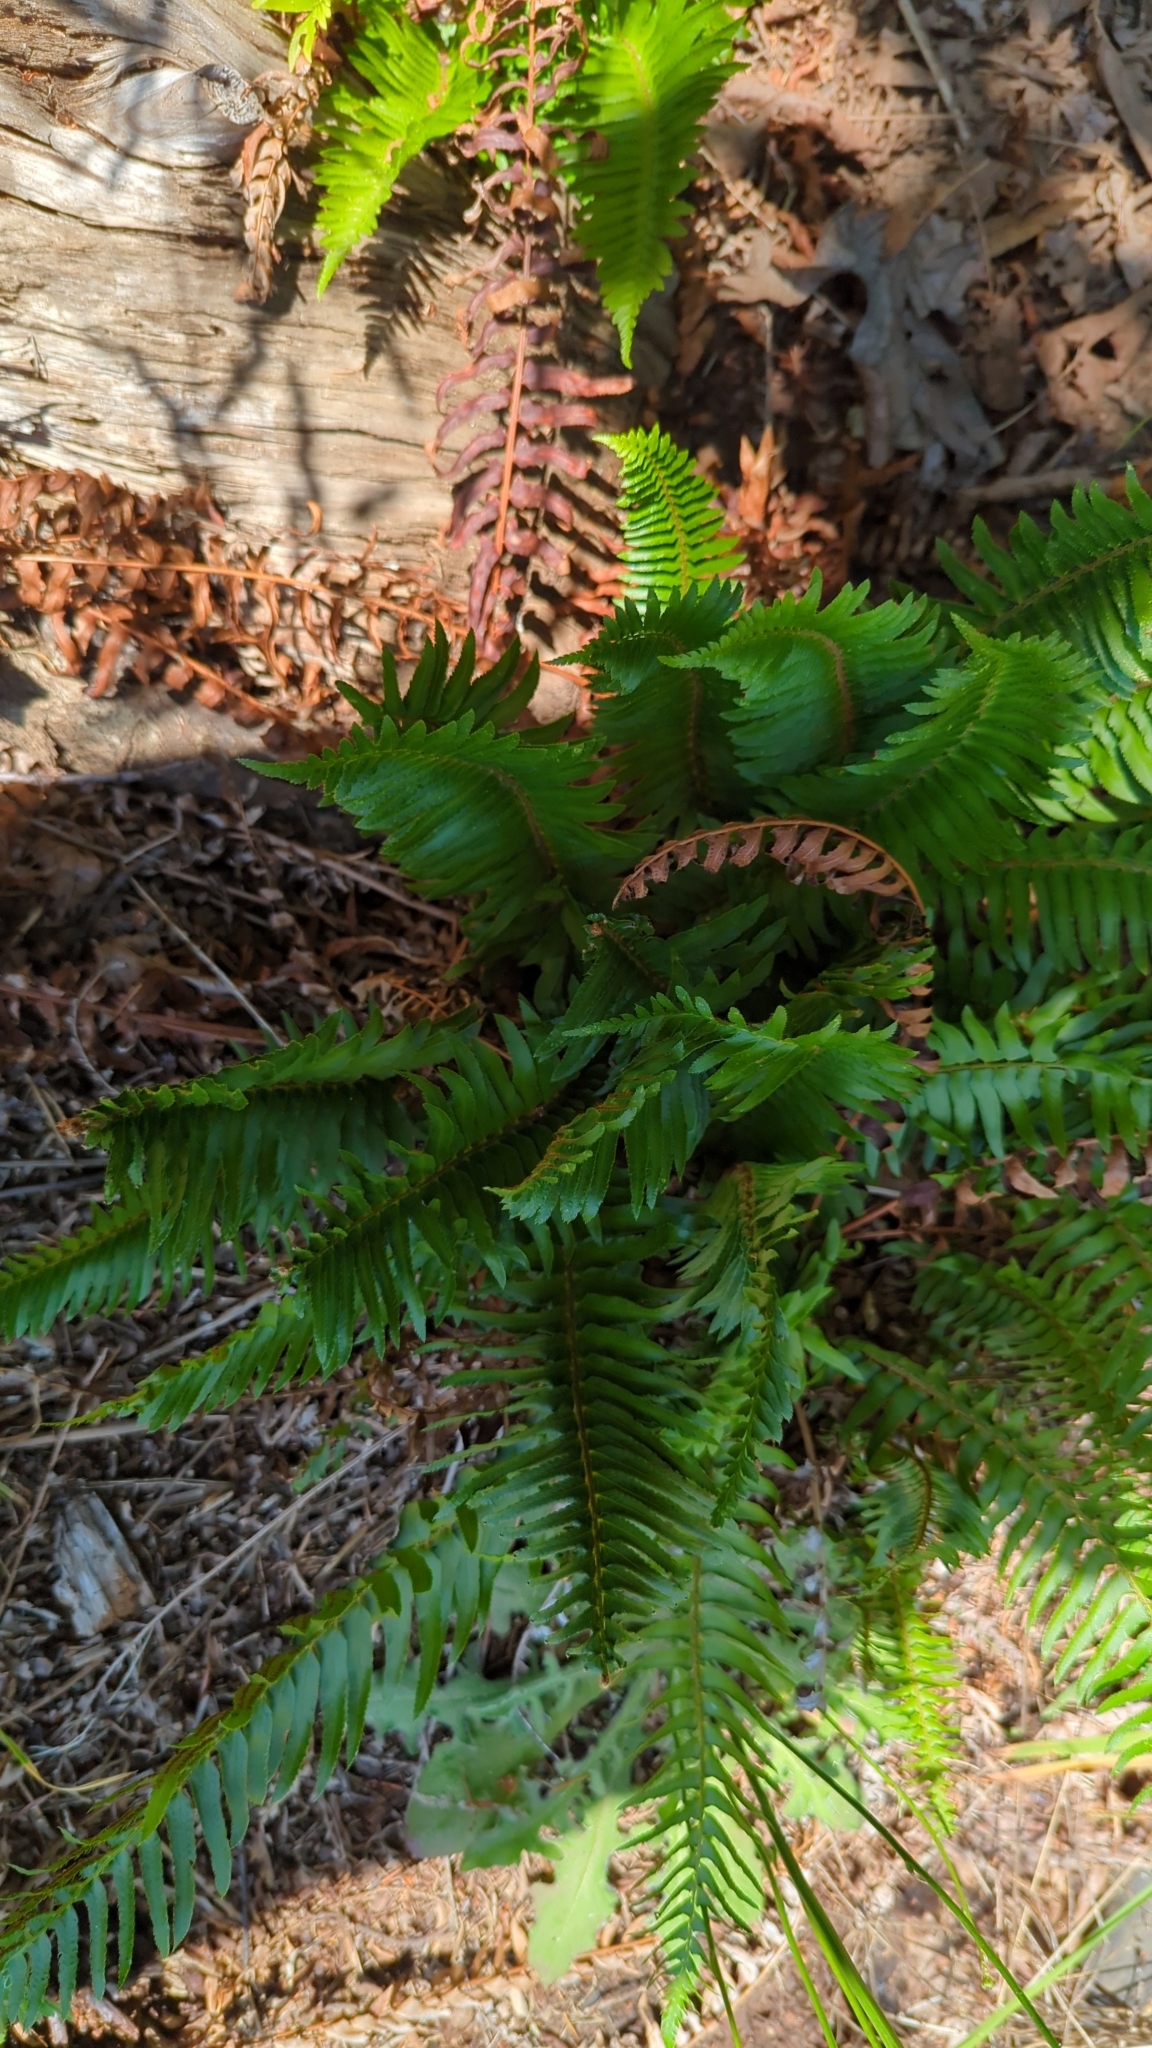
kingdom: Plantae
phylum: Tracheophyta
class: Polypodiopsida
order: Polypodiales
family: Dryopteridaceae
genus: Polystichum
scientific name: Polystichum munitum
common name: Western sword-fern
